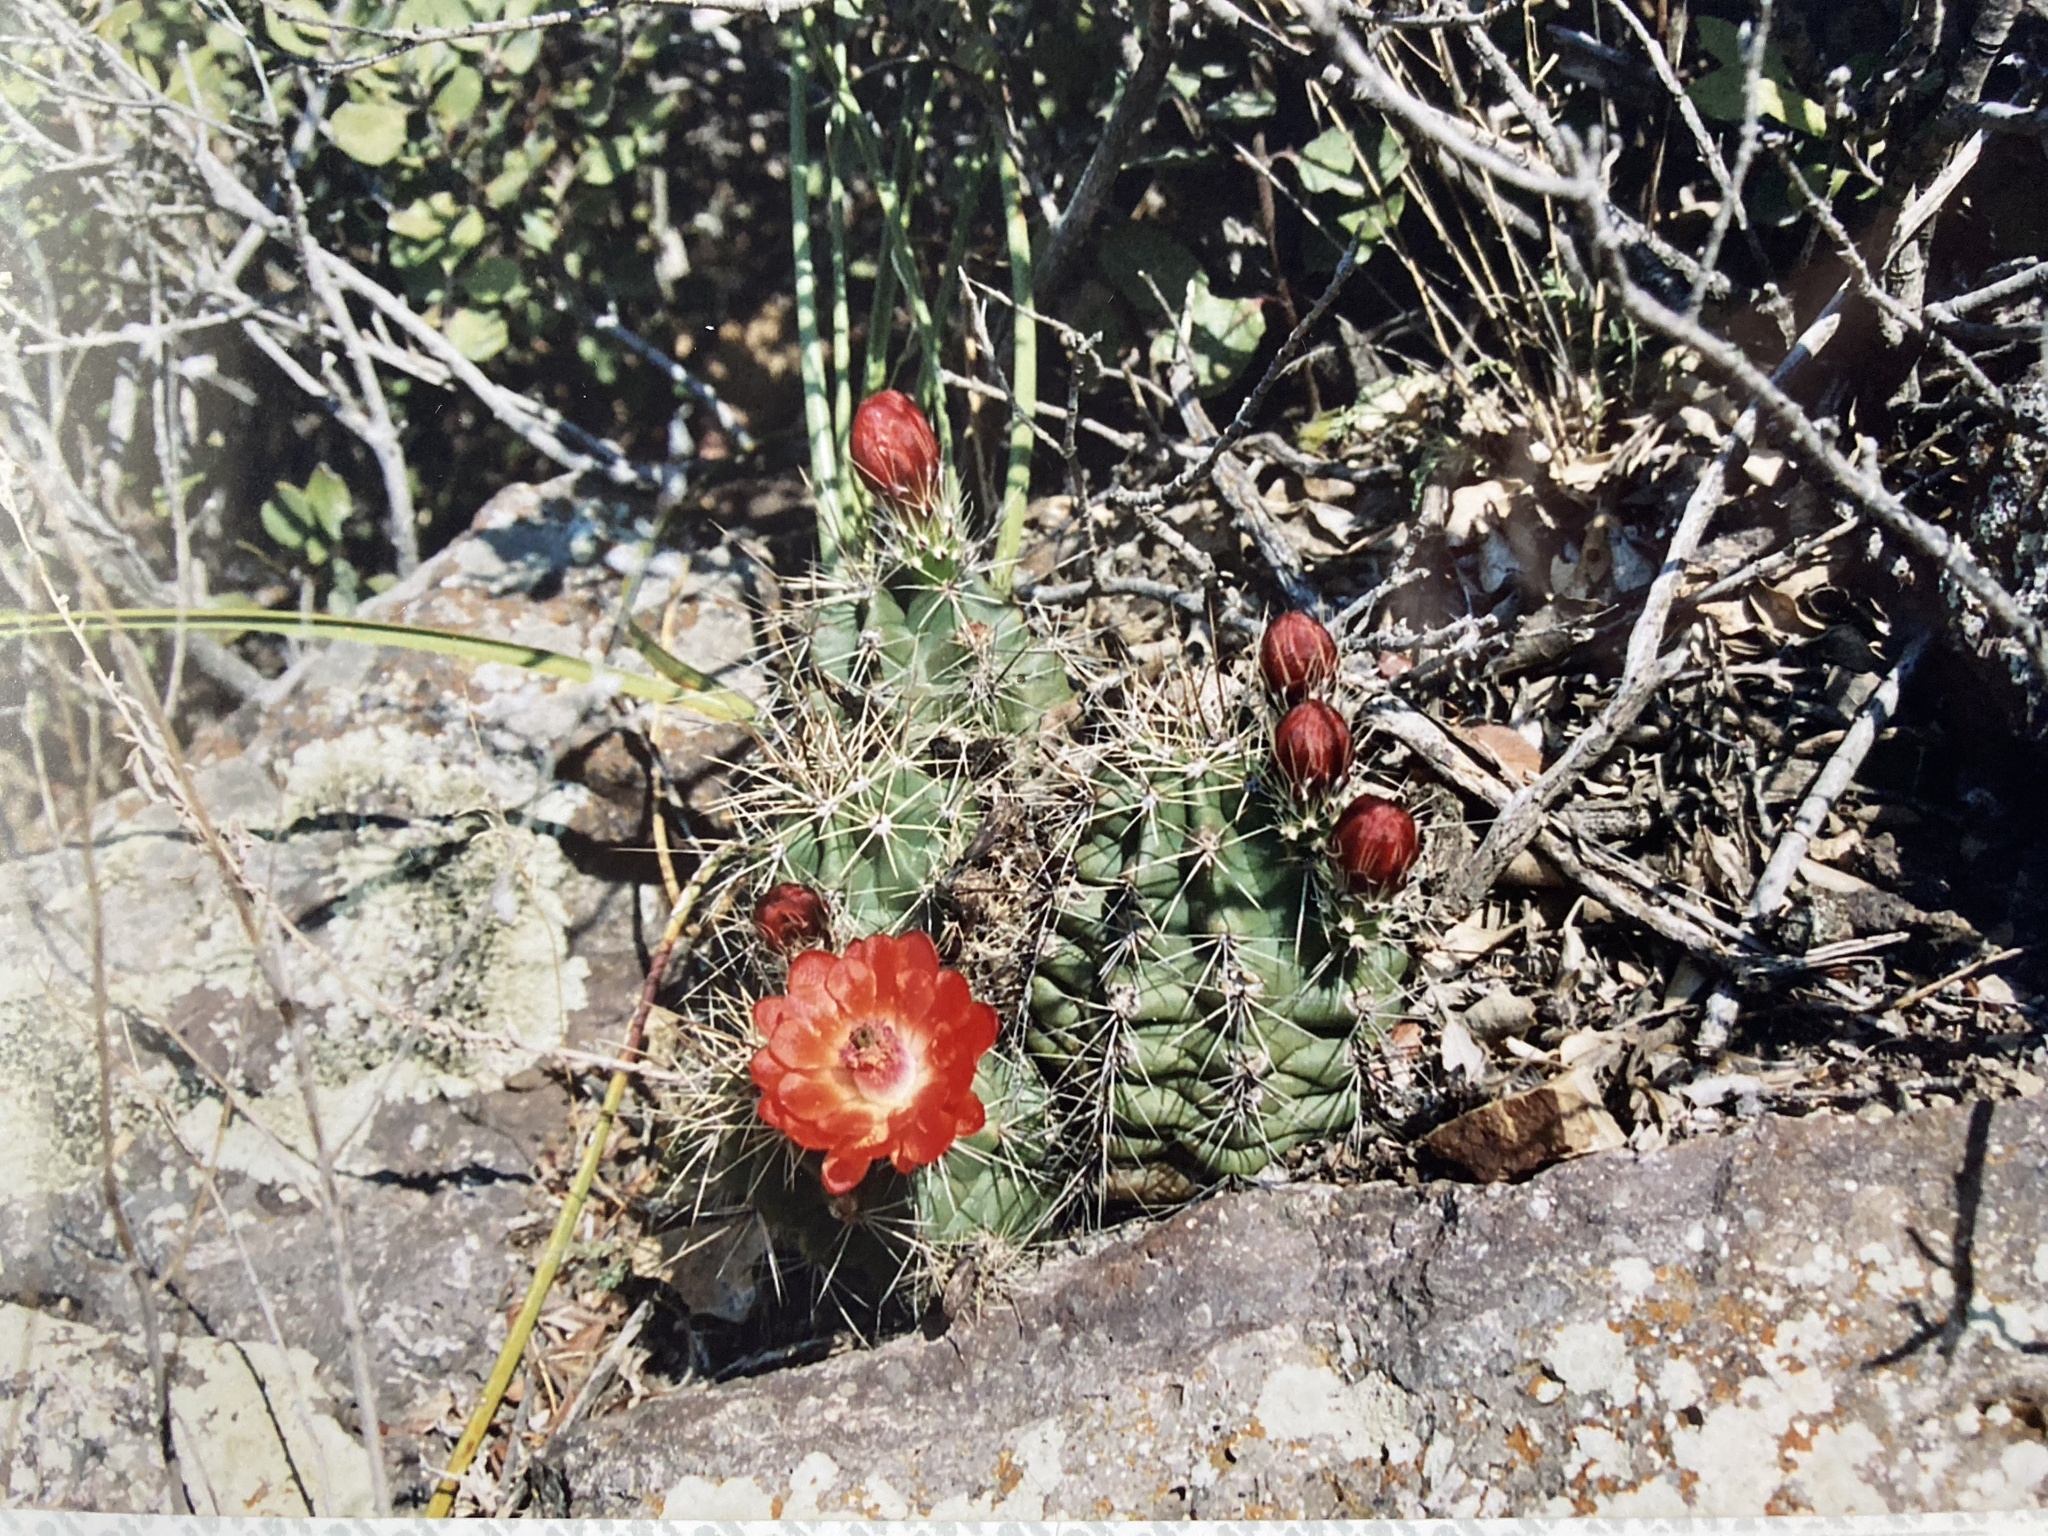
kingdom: Plantae
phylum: Tracheophyta
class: Magnoliopsida
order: Caryophyllales
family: Cactaceae
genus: Echinocereus
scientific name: Echinocereus coccineus
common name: Scarlet hedgehog cactus
